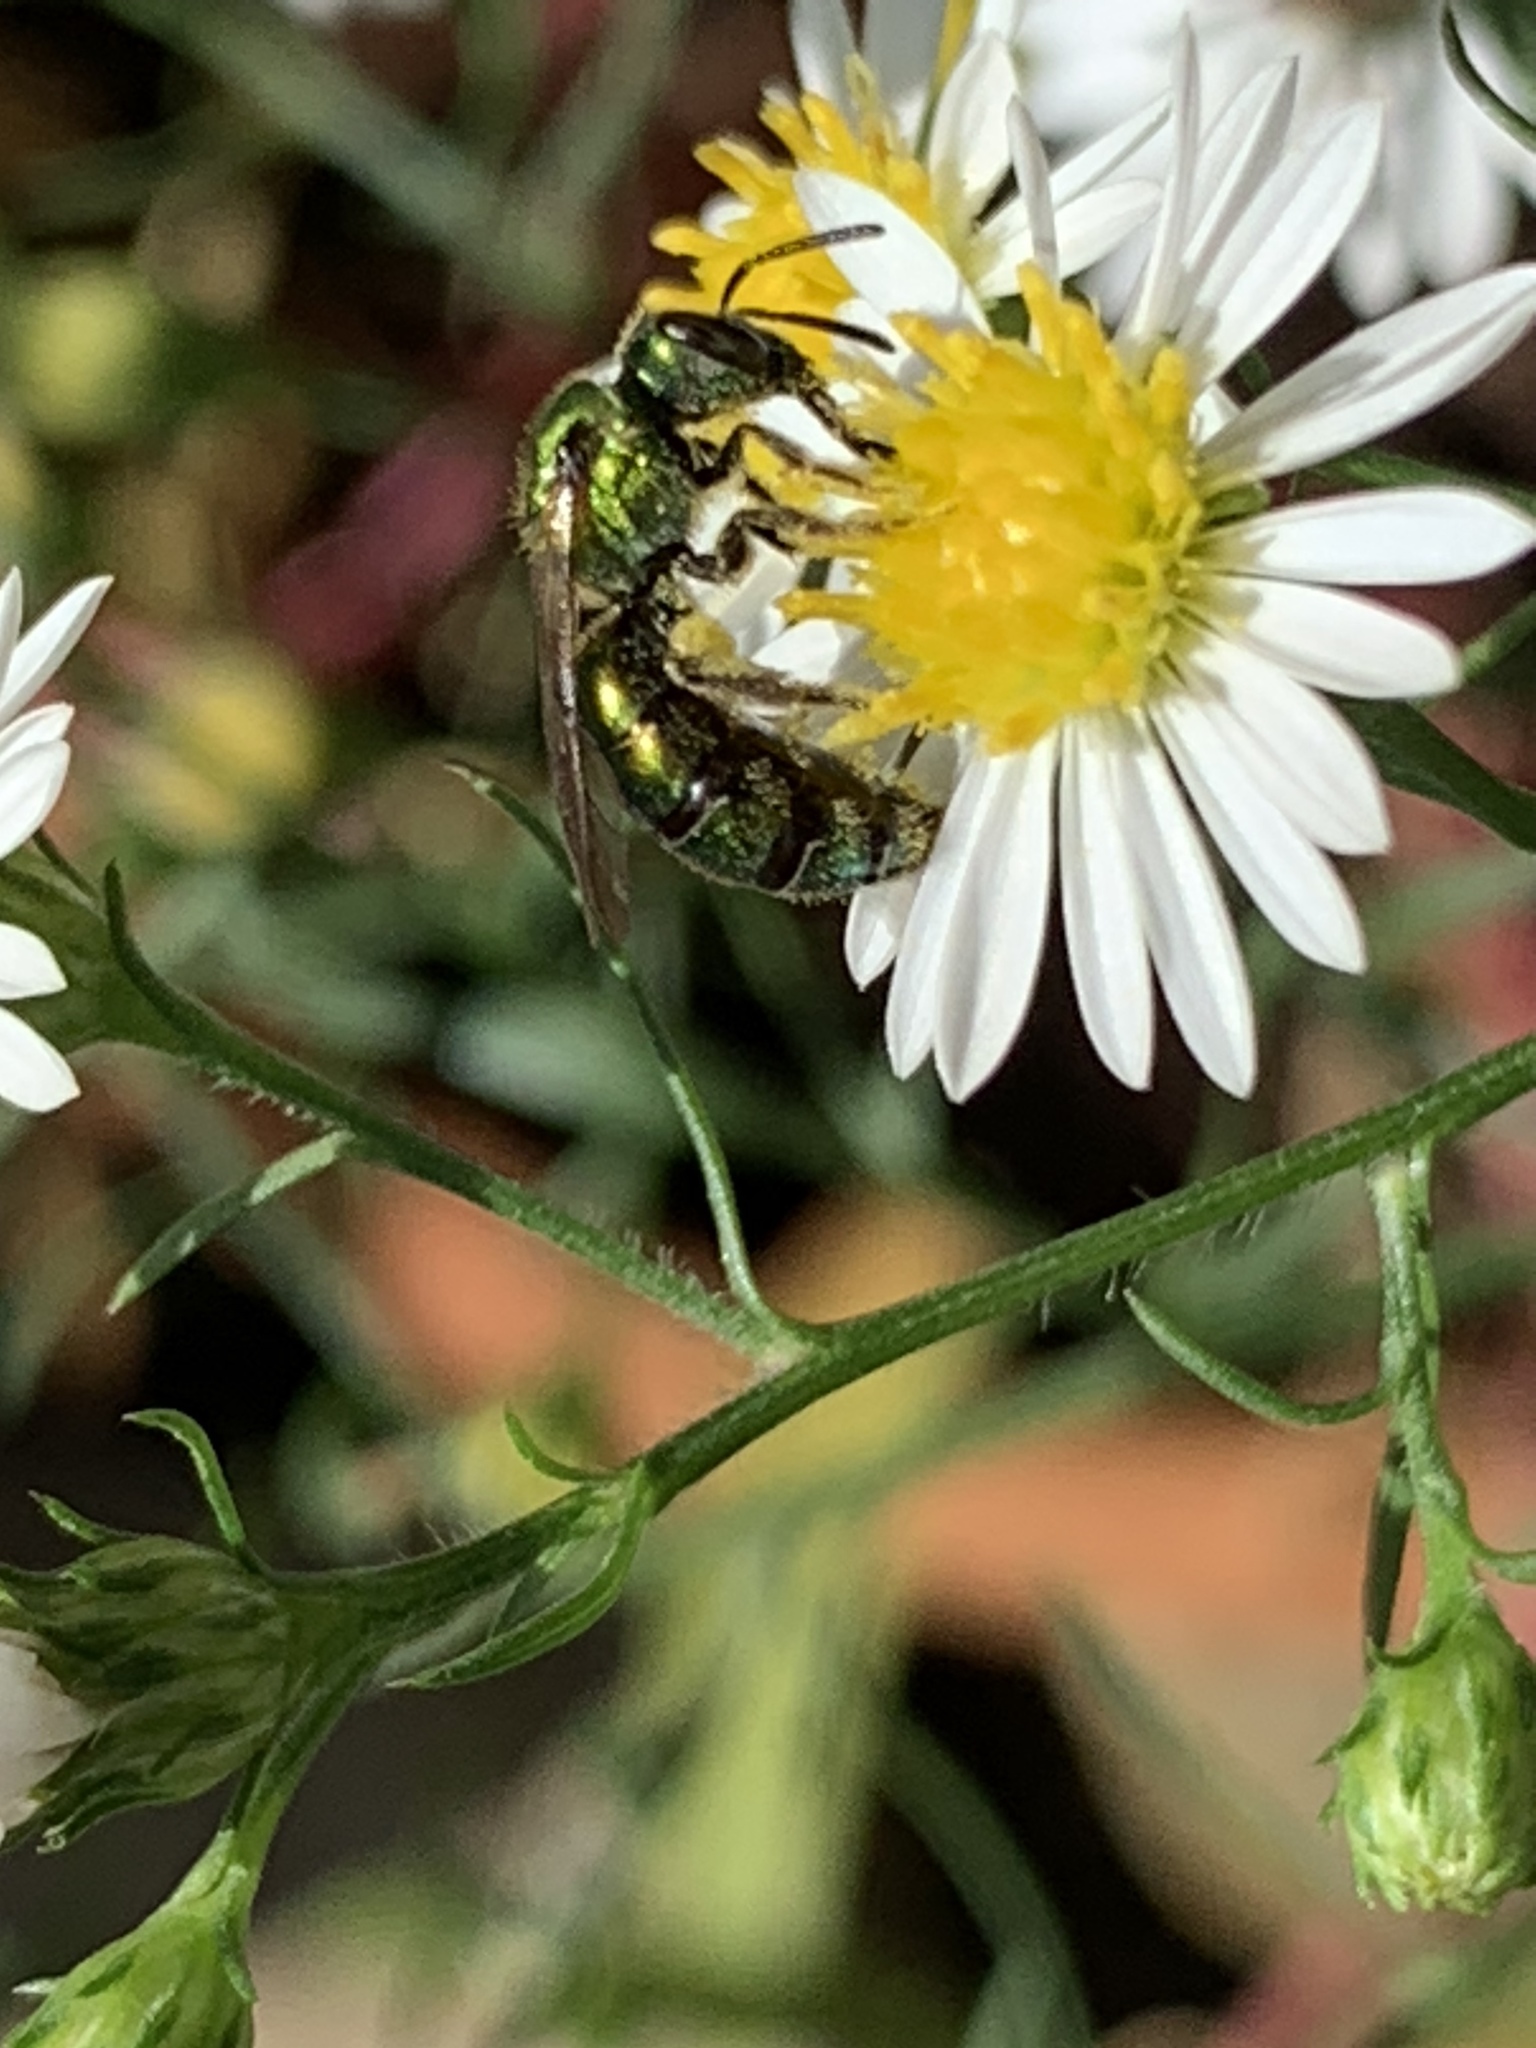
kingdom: Animalia
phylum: Arthropoda
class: Insecta
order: Hymenoptera
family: Halictidae
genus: Augochlora
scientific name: Augochlora pura
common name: Pure green sweat bee
